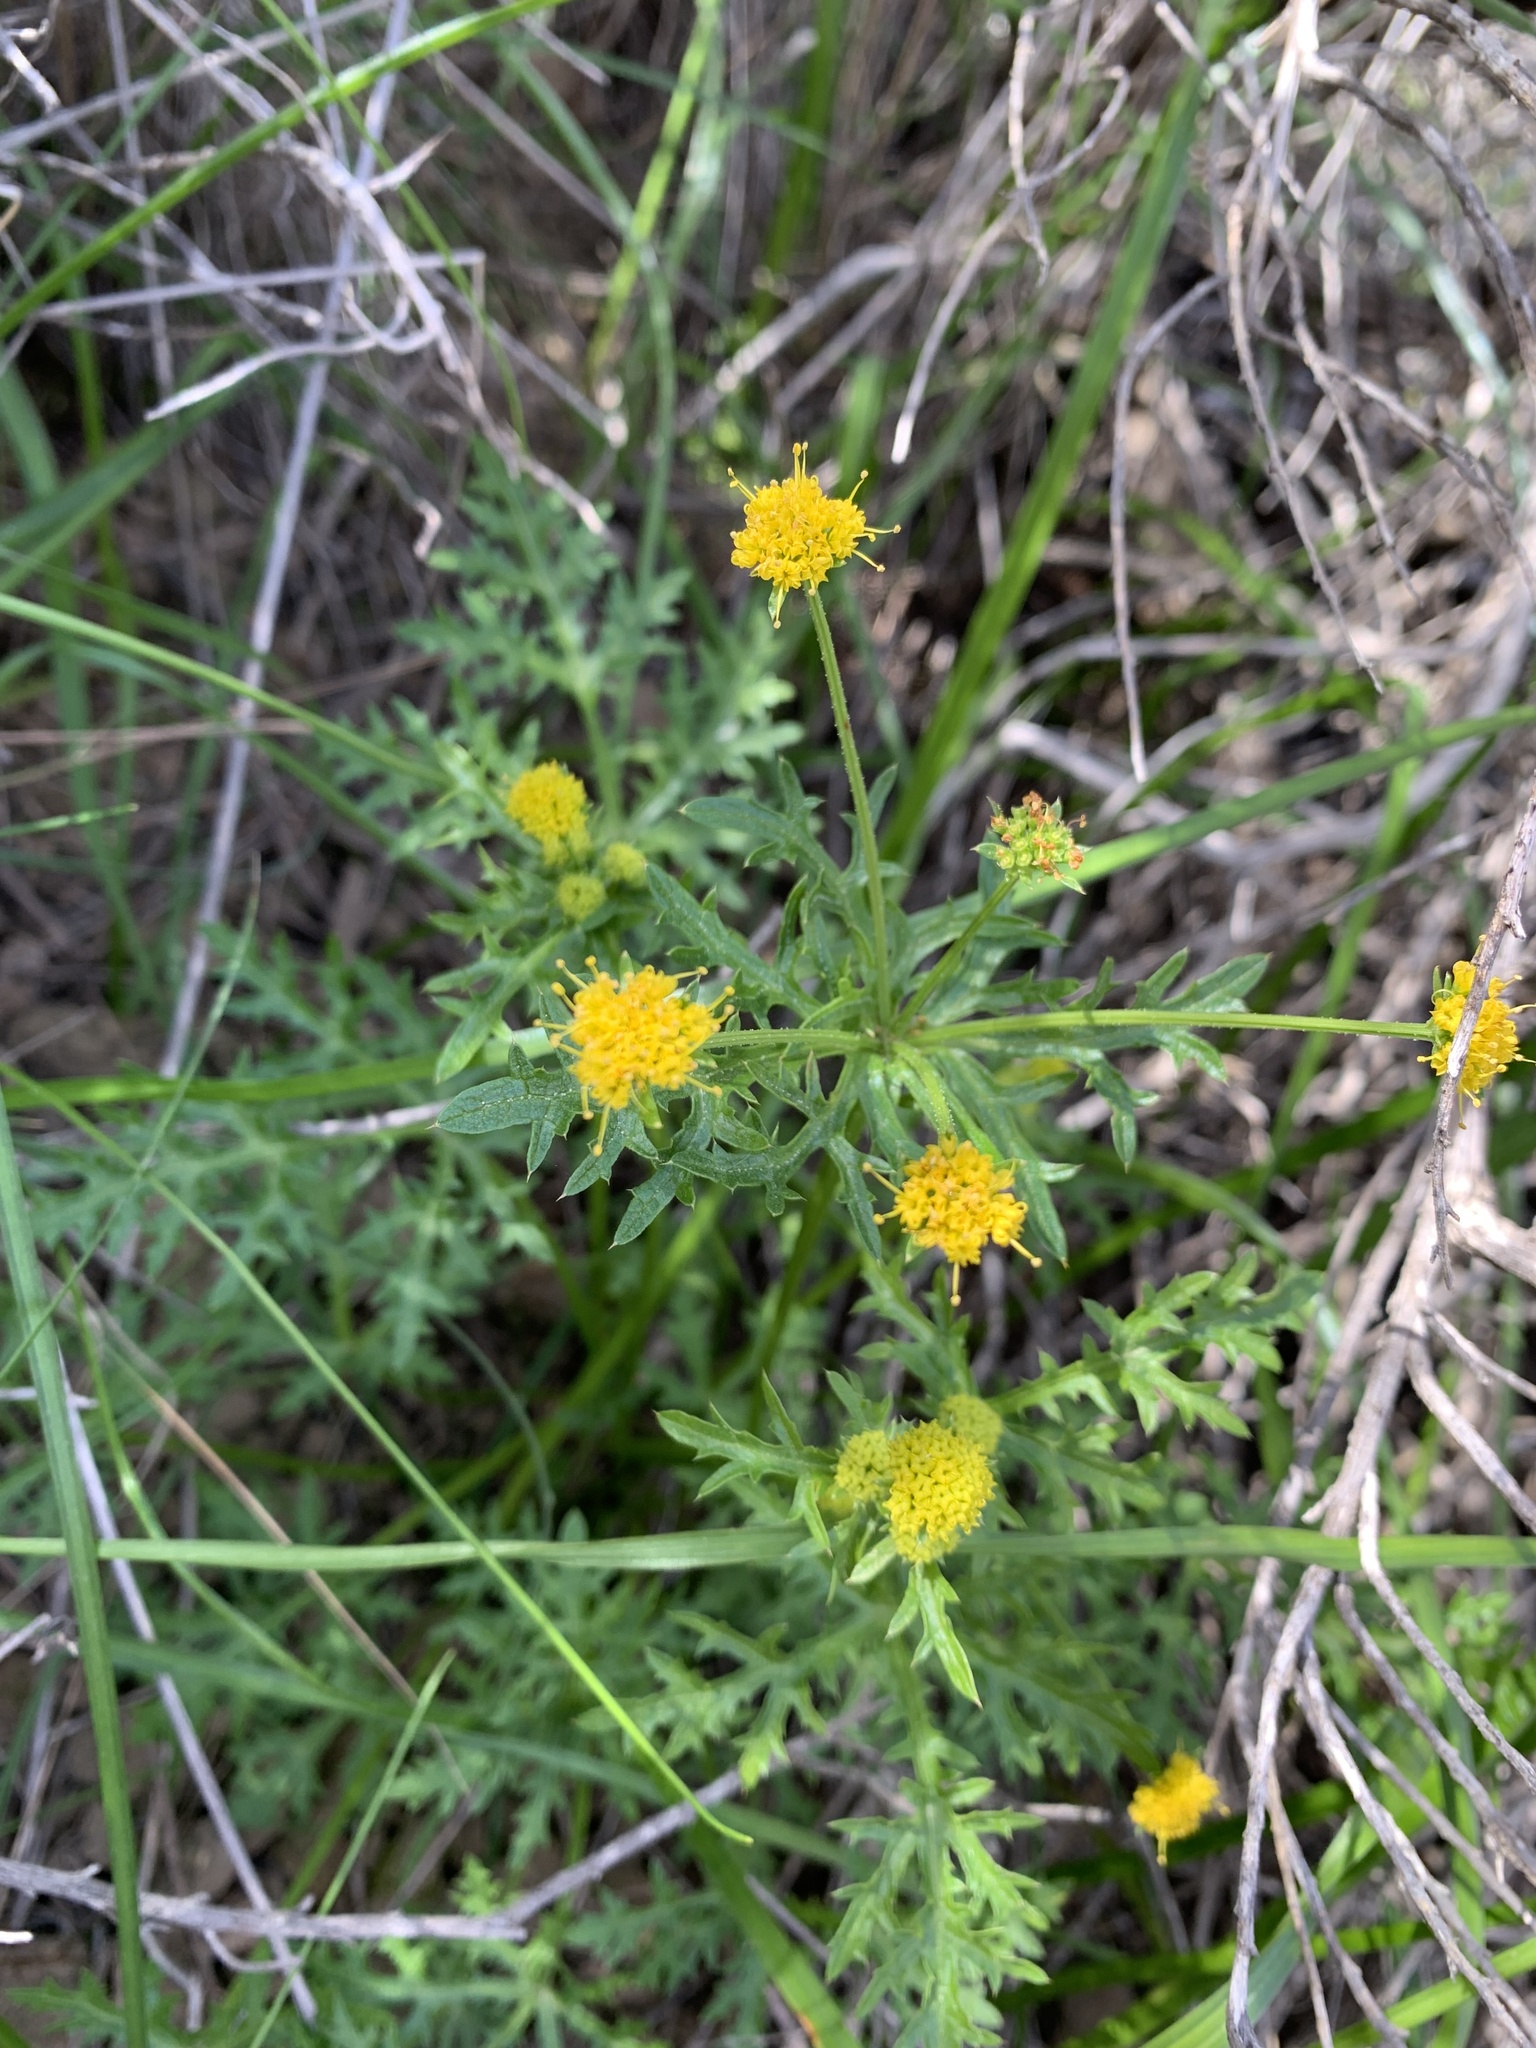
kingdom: Plantae
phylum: Tracheophyta
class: Magnoliopsida
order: Apiales
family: Apiaceae
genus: Sanicula
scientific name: Sanicula arguta
